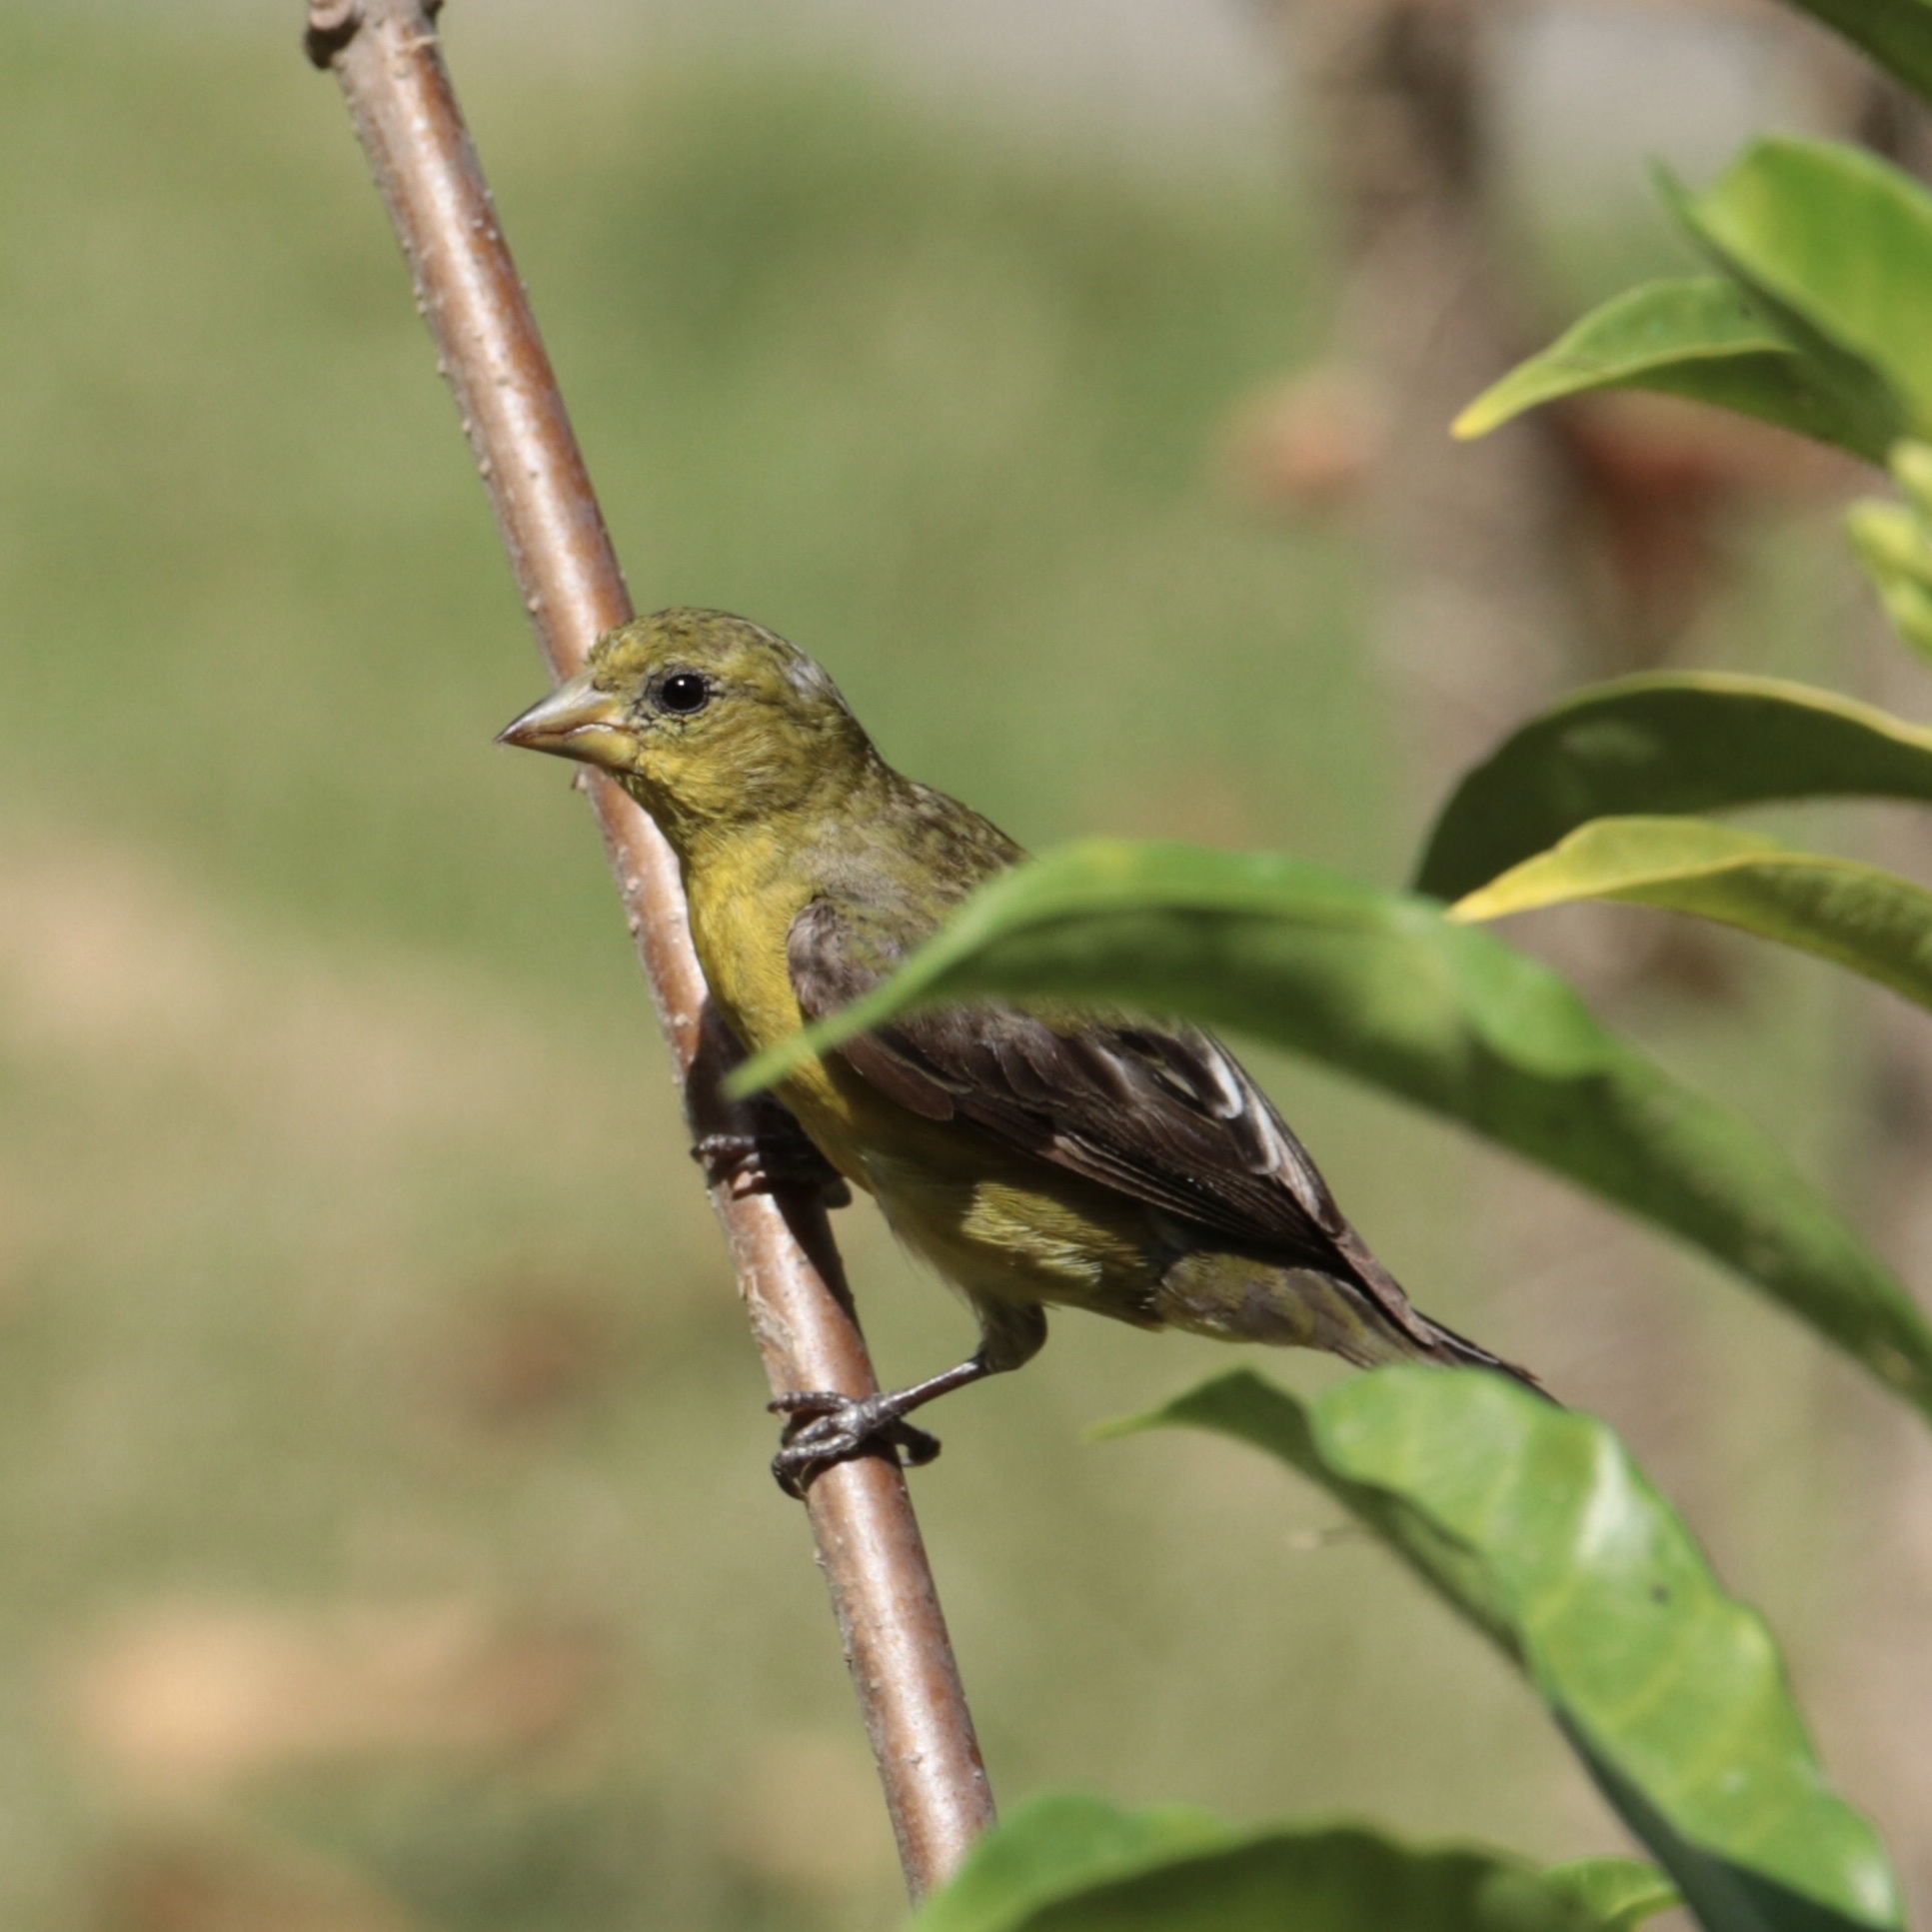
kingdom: Animalia
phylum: Chordata
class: Aves
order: Passeriformes
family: Fringillidae
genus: Spinus
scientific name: Spinus psaltria
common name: Lesser goldfinch
